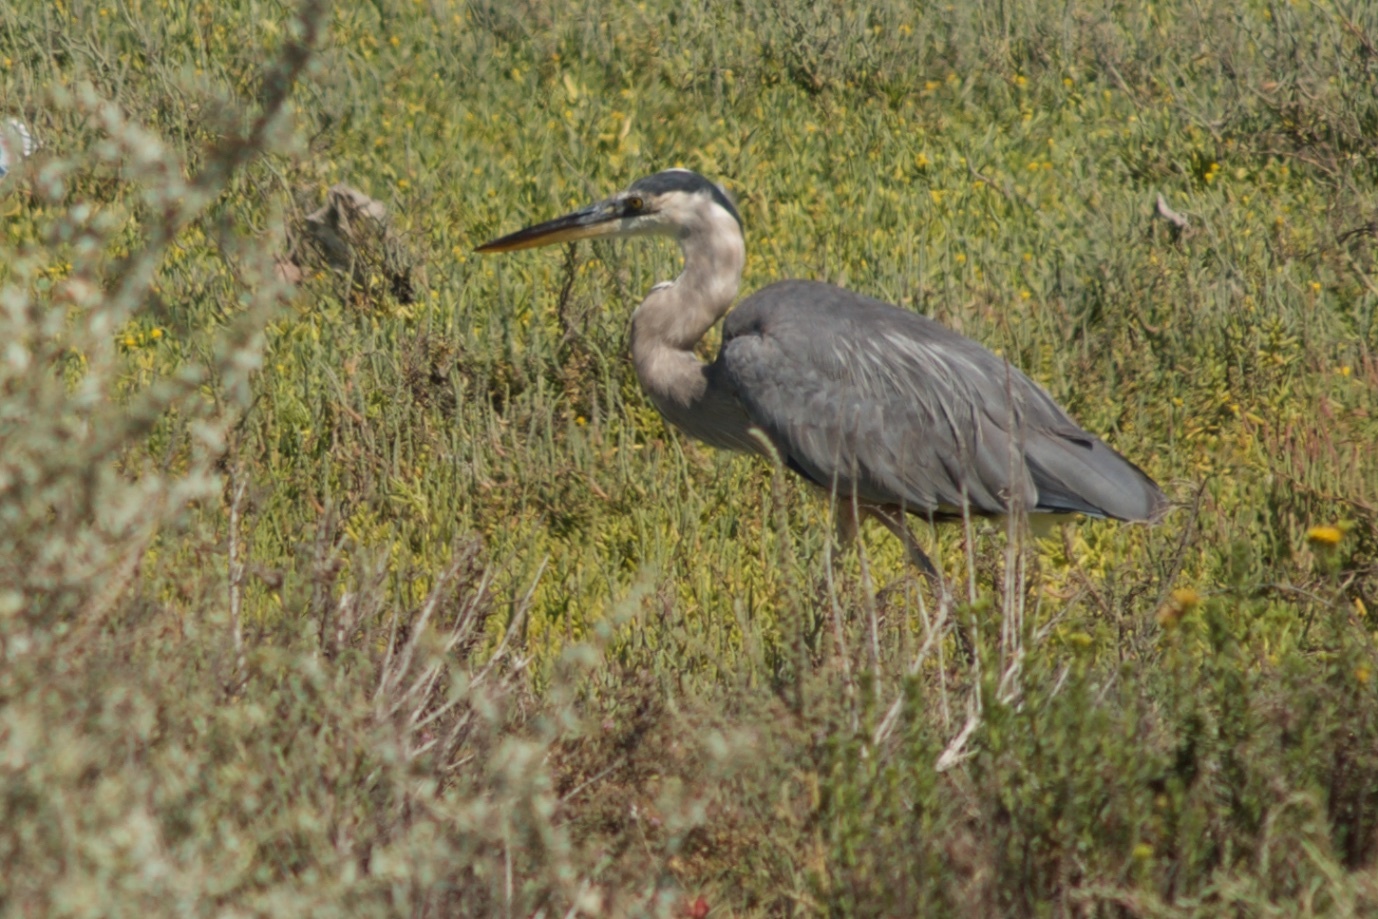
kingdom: Animalia
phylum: Chordata
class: Aves
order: Pelecaniformes
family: Ardeidae
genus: Ardea
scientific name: Ardea herodias
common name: Great blue heron
